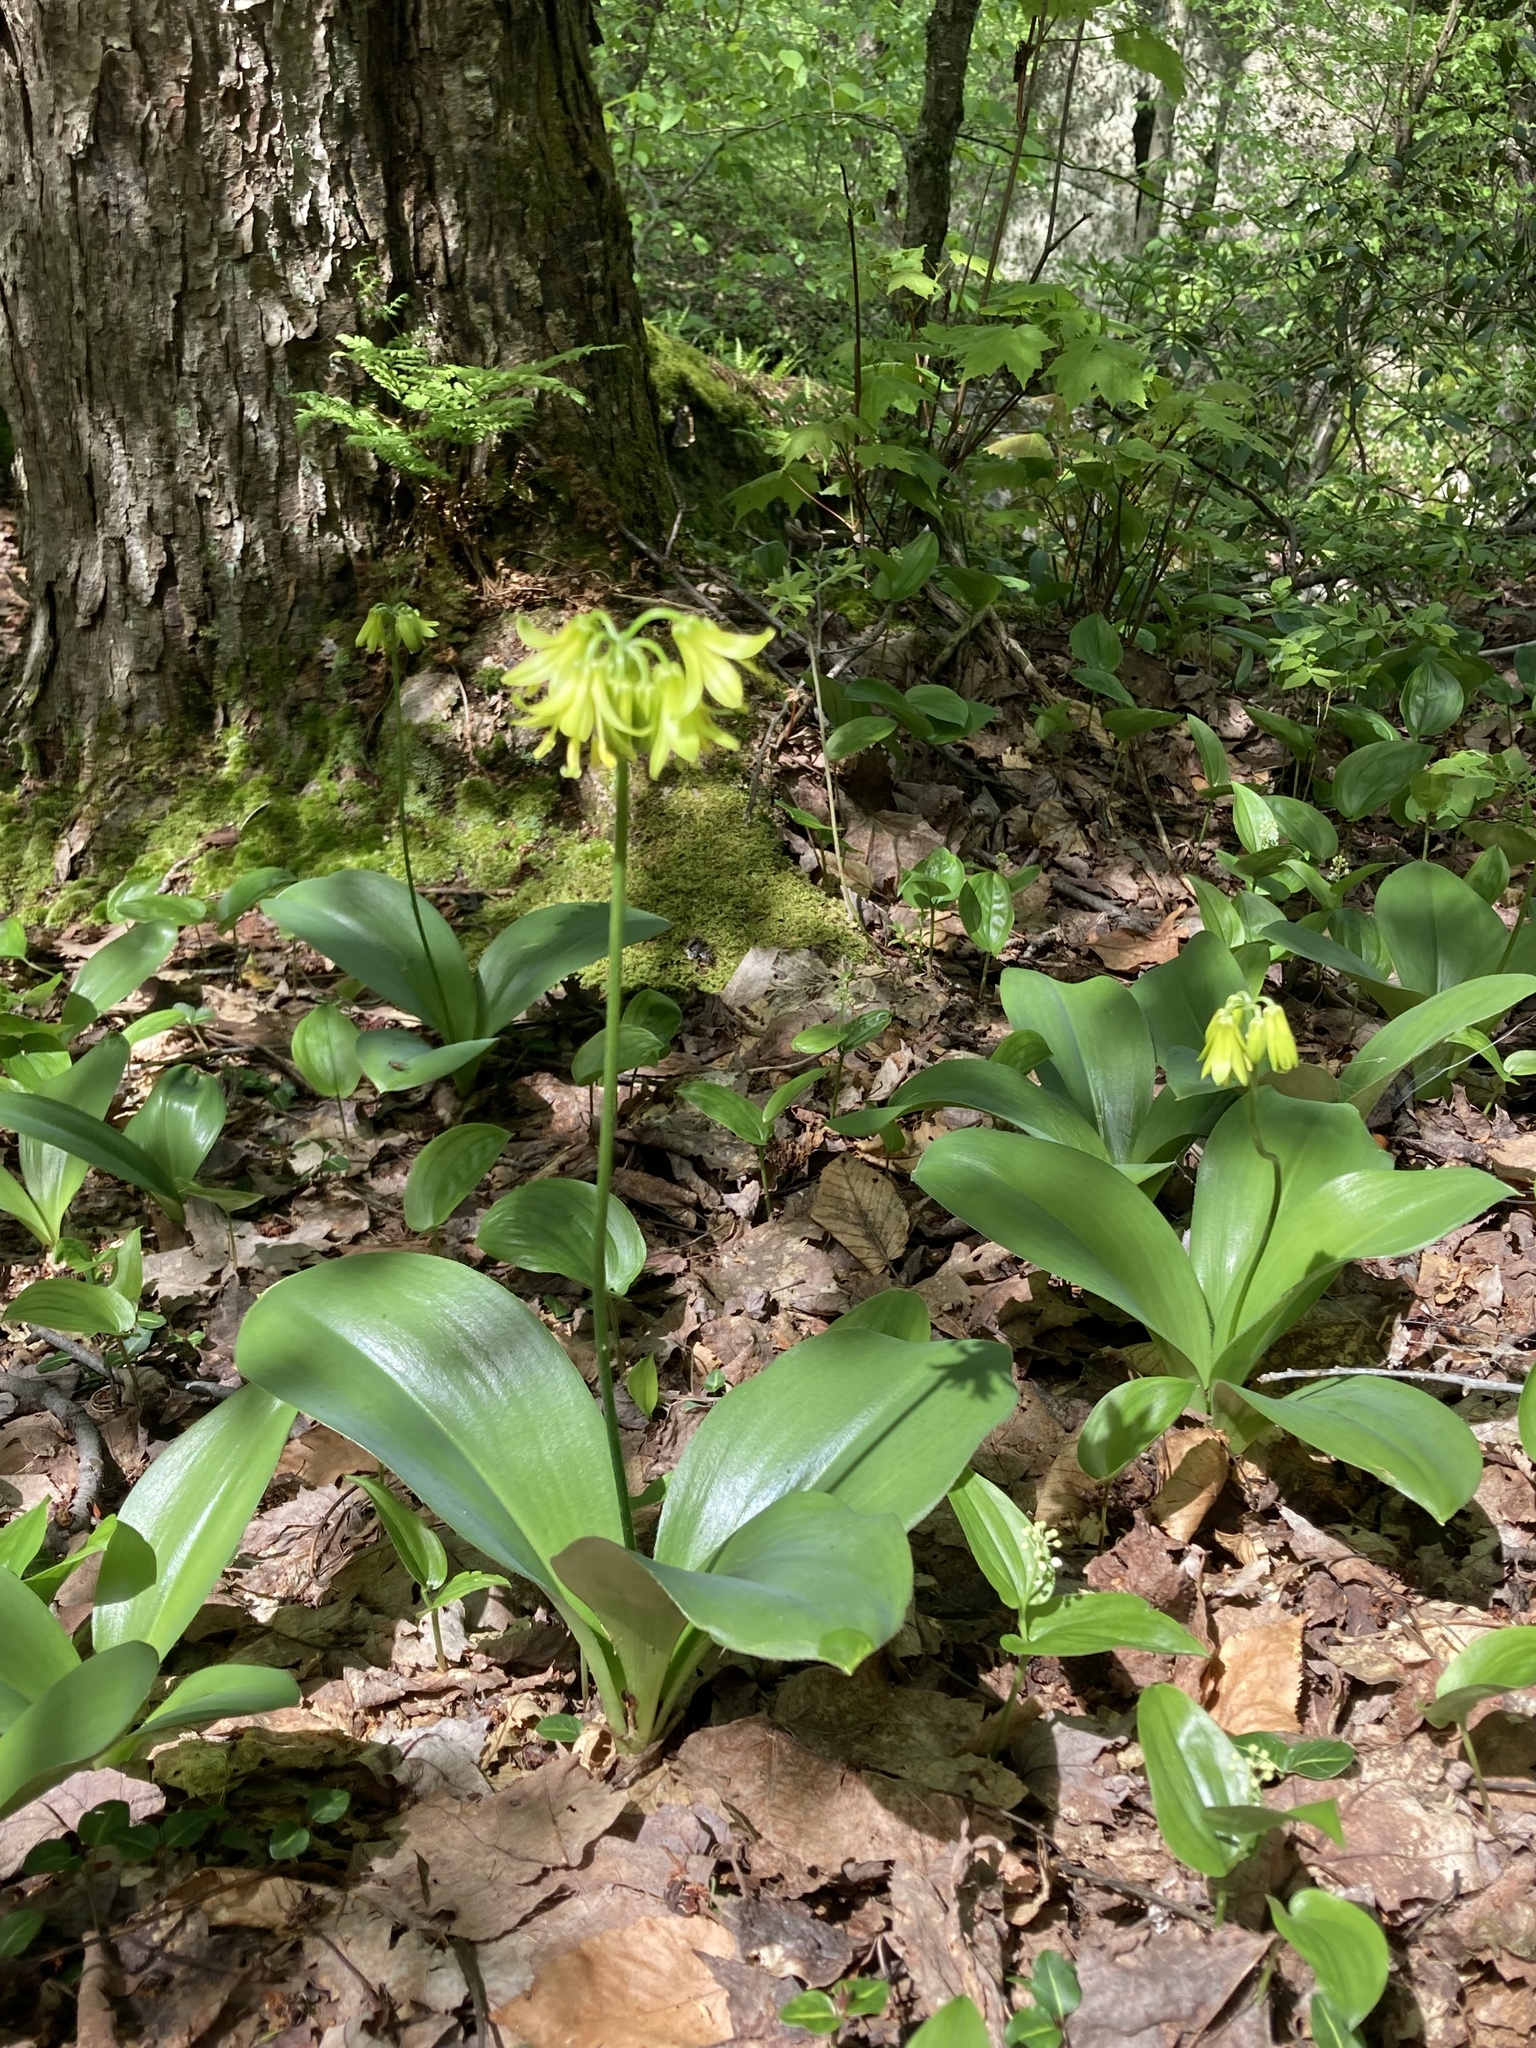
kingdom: Plantae
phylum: Tracheophyta
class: Liliopsida
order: Liliales
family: Liliaceae
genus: Clintonia
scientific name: Clintonia borealis
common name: Yellow clintonia
